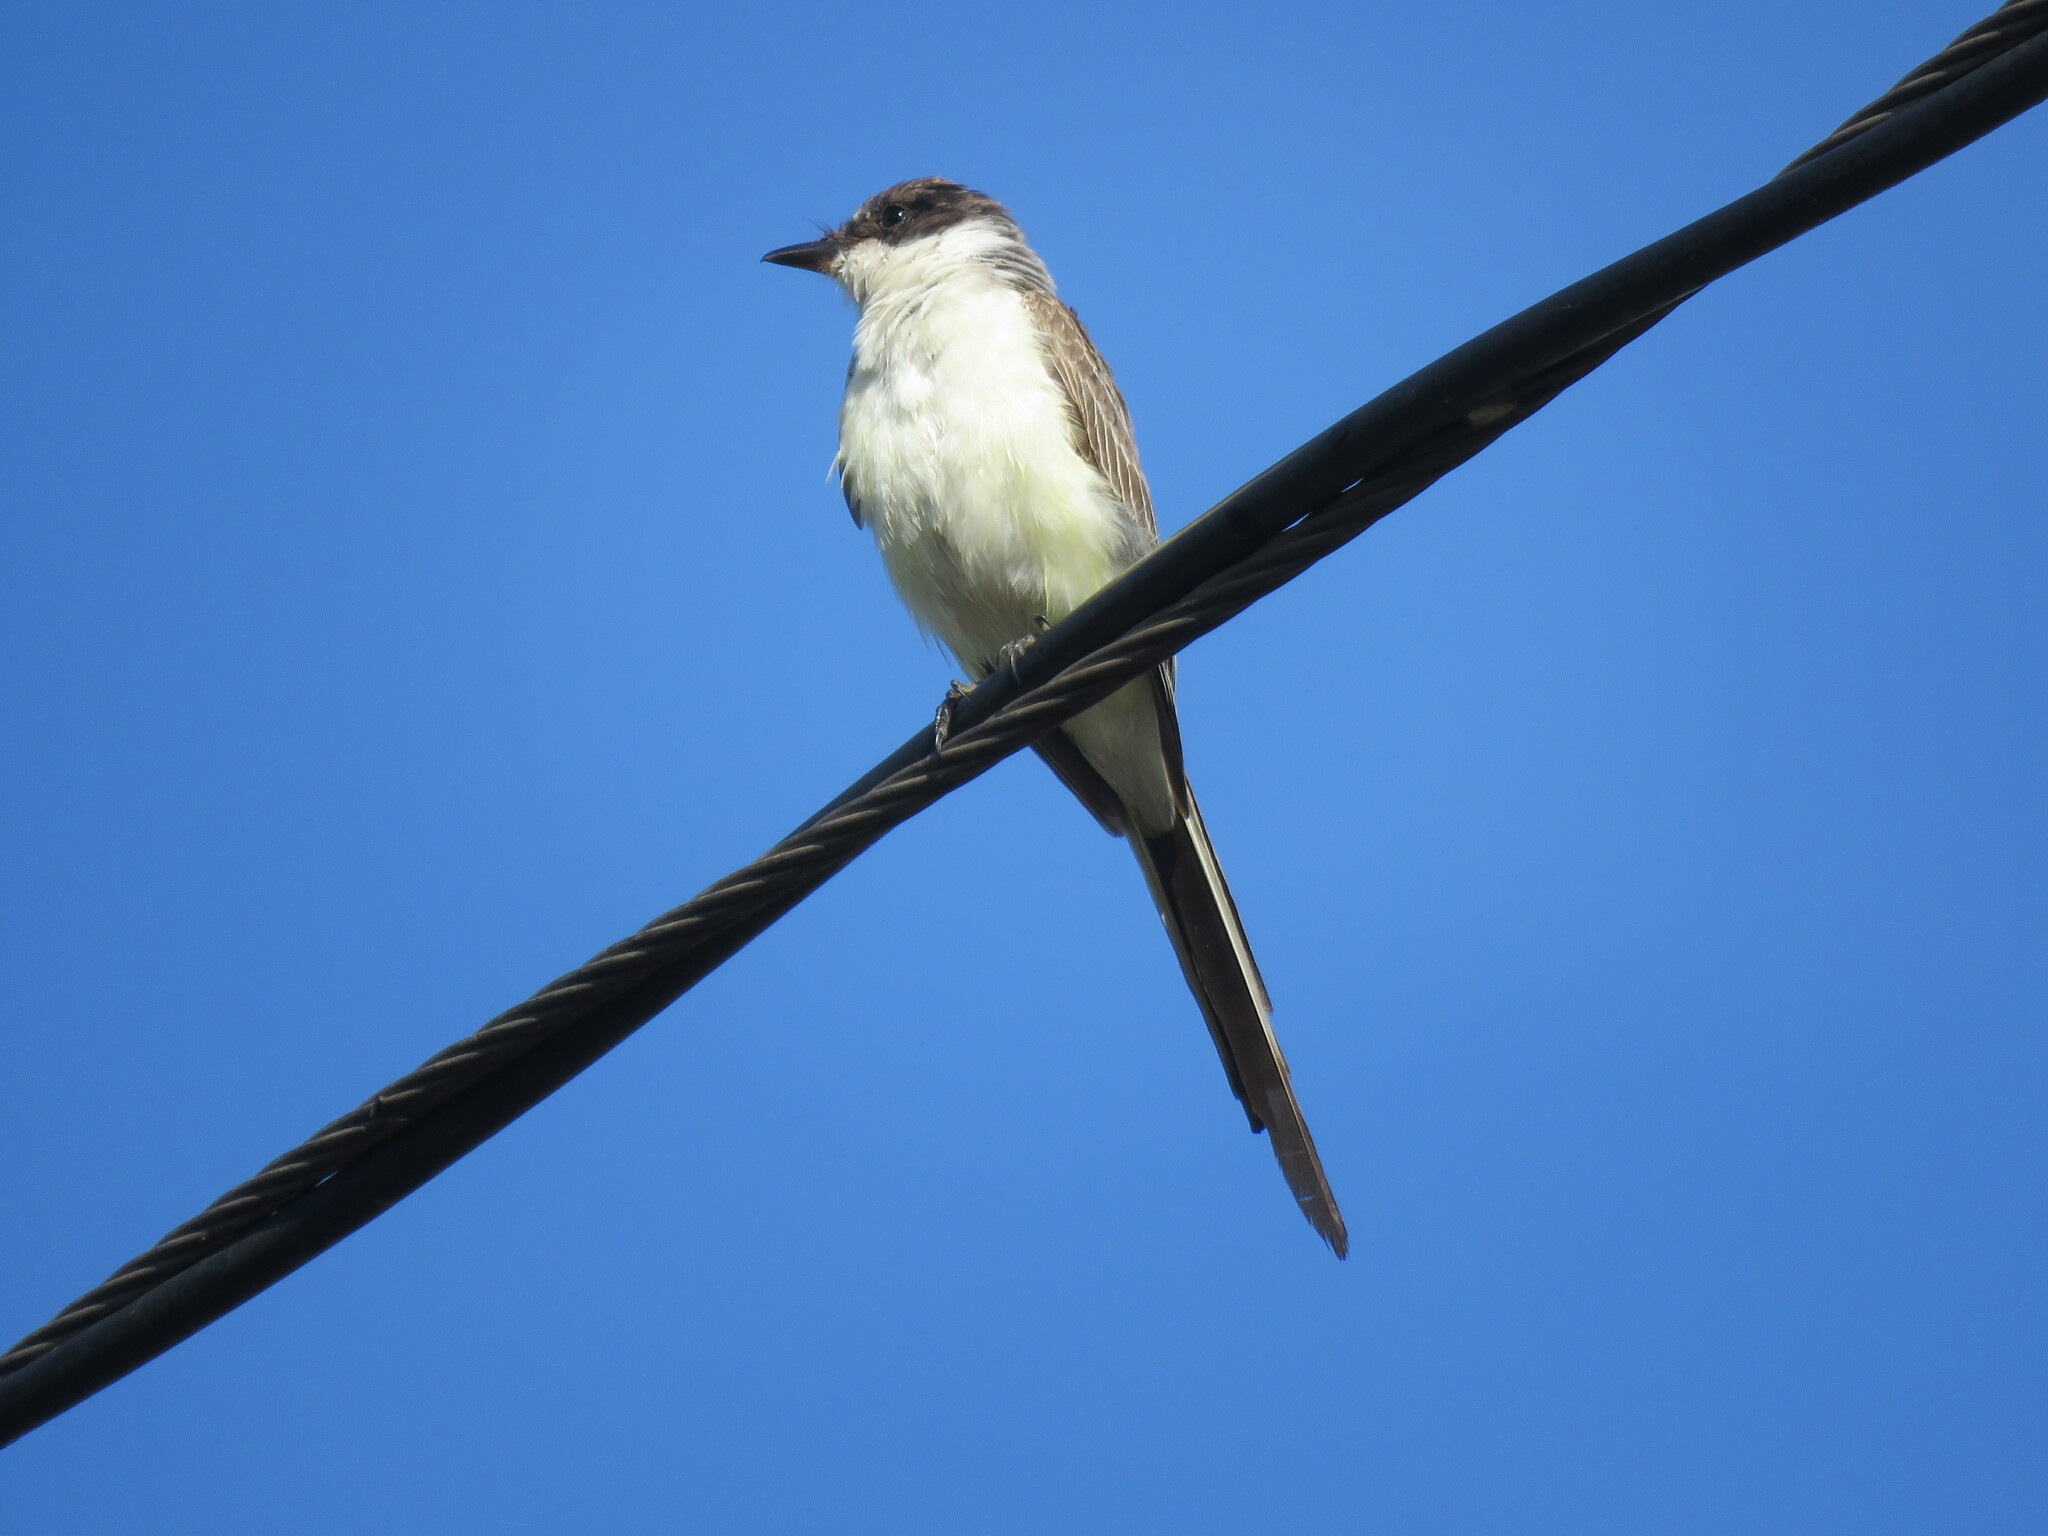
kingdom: Animalia
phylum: Chordata
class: Aves
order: Passeriformes
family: Tyrannidae
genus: Tyrannus
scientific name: Tyrannus savana
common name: Fork-tailed flycatcher
